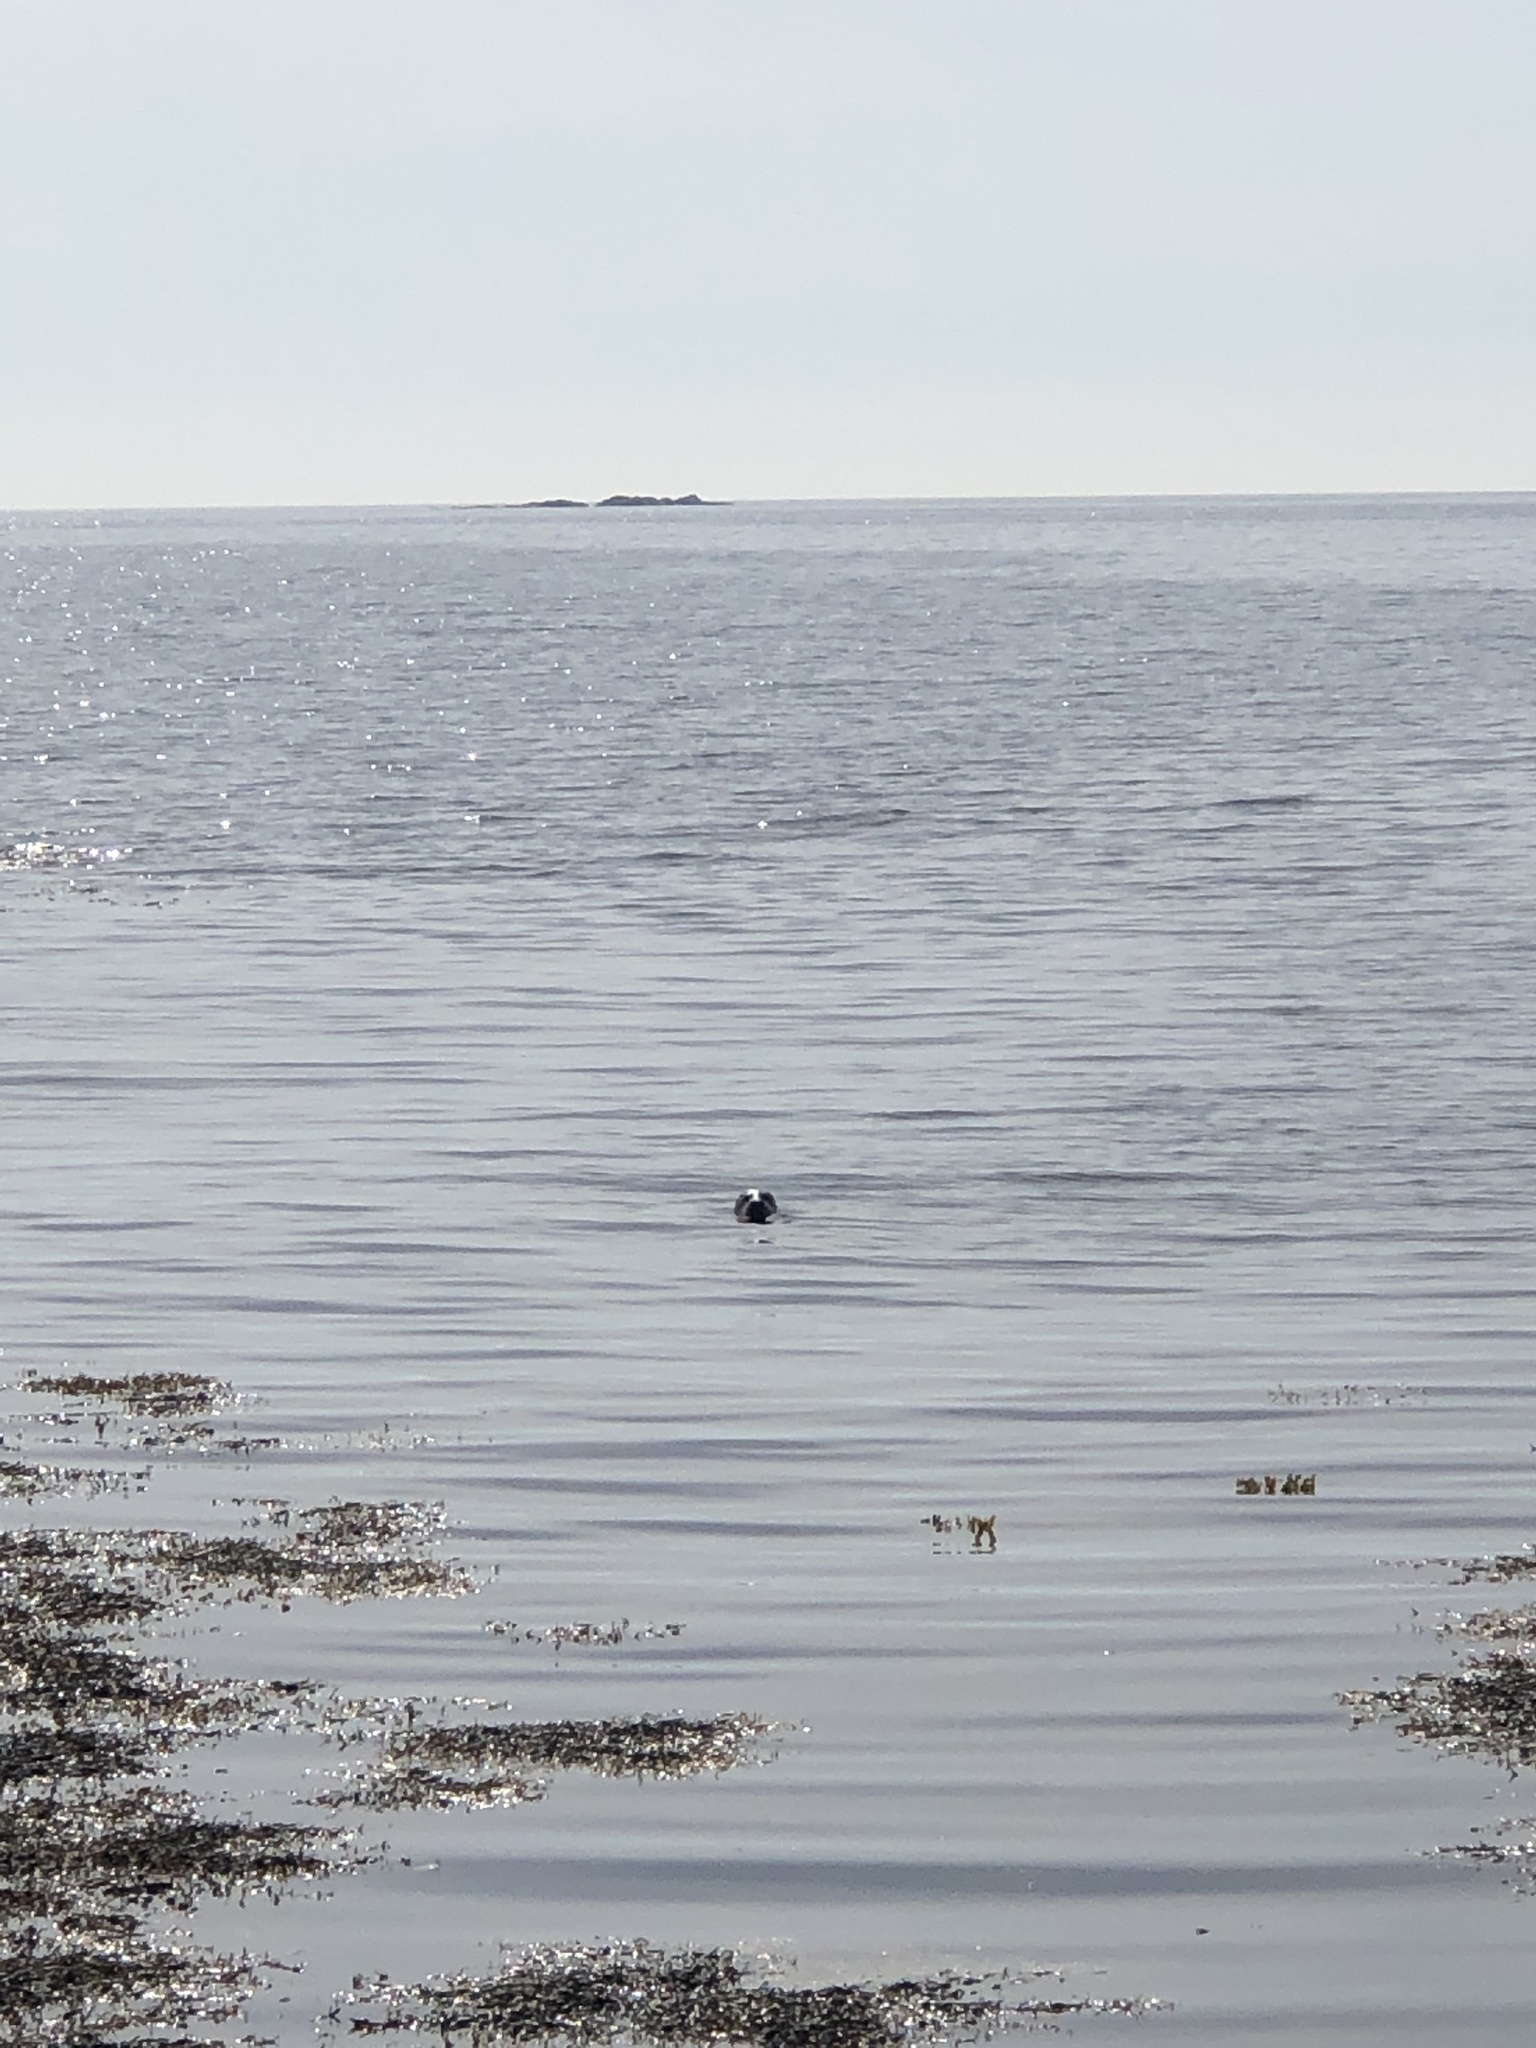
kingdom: Animalia
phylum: Chordata
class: Mammalia
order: Carnivora
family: Phocidae
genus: Phoca
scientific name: Phoca vitulina
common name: Harbor seal
